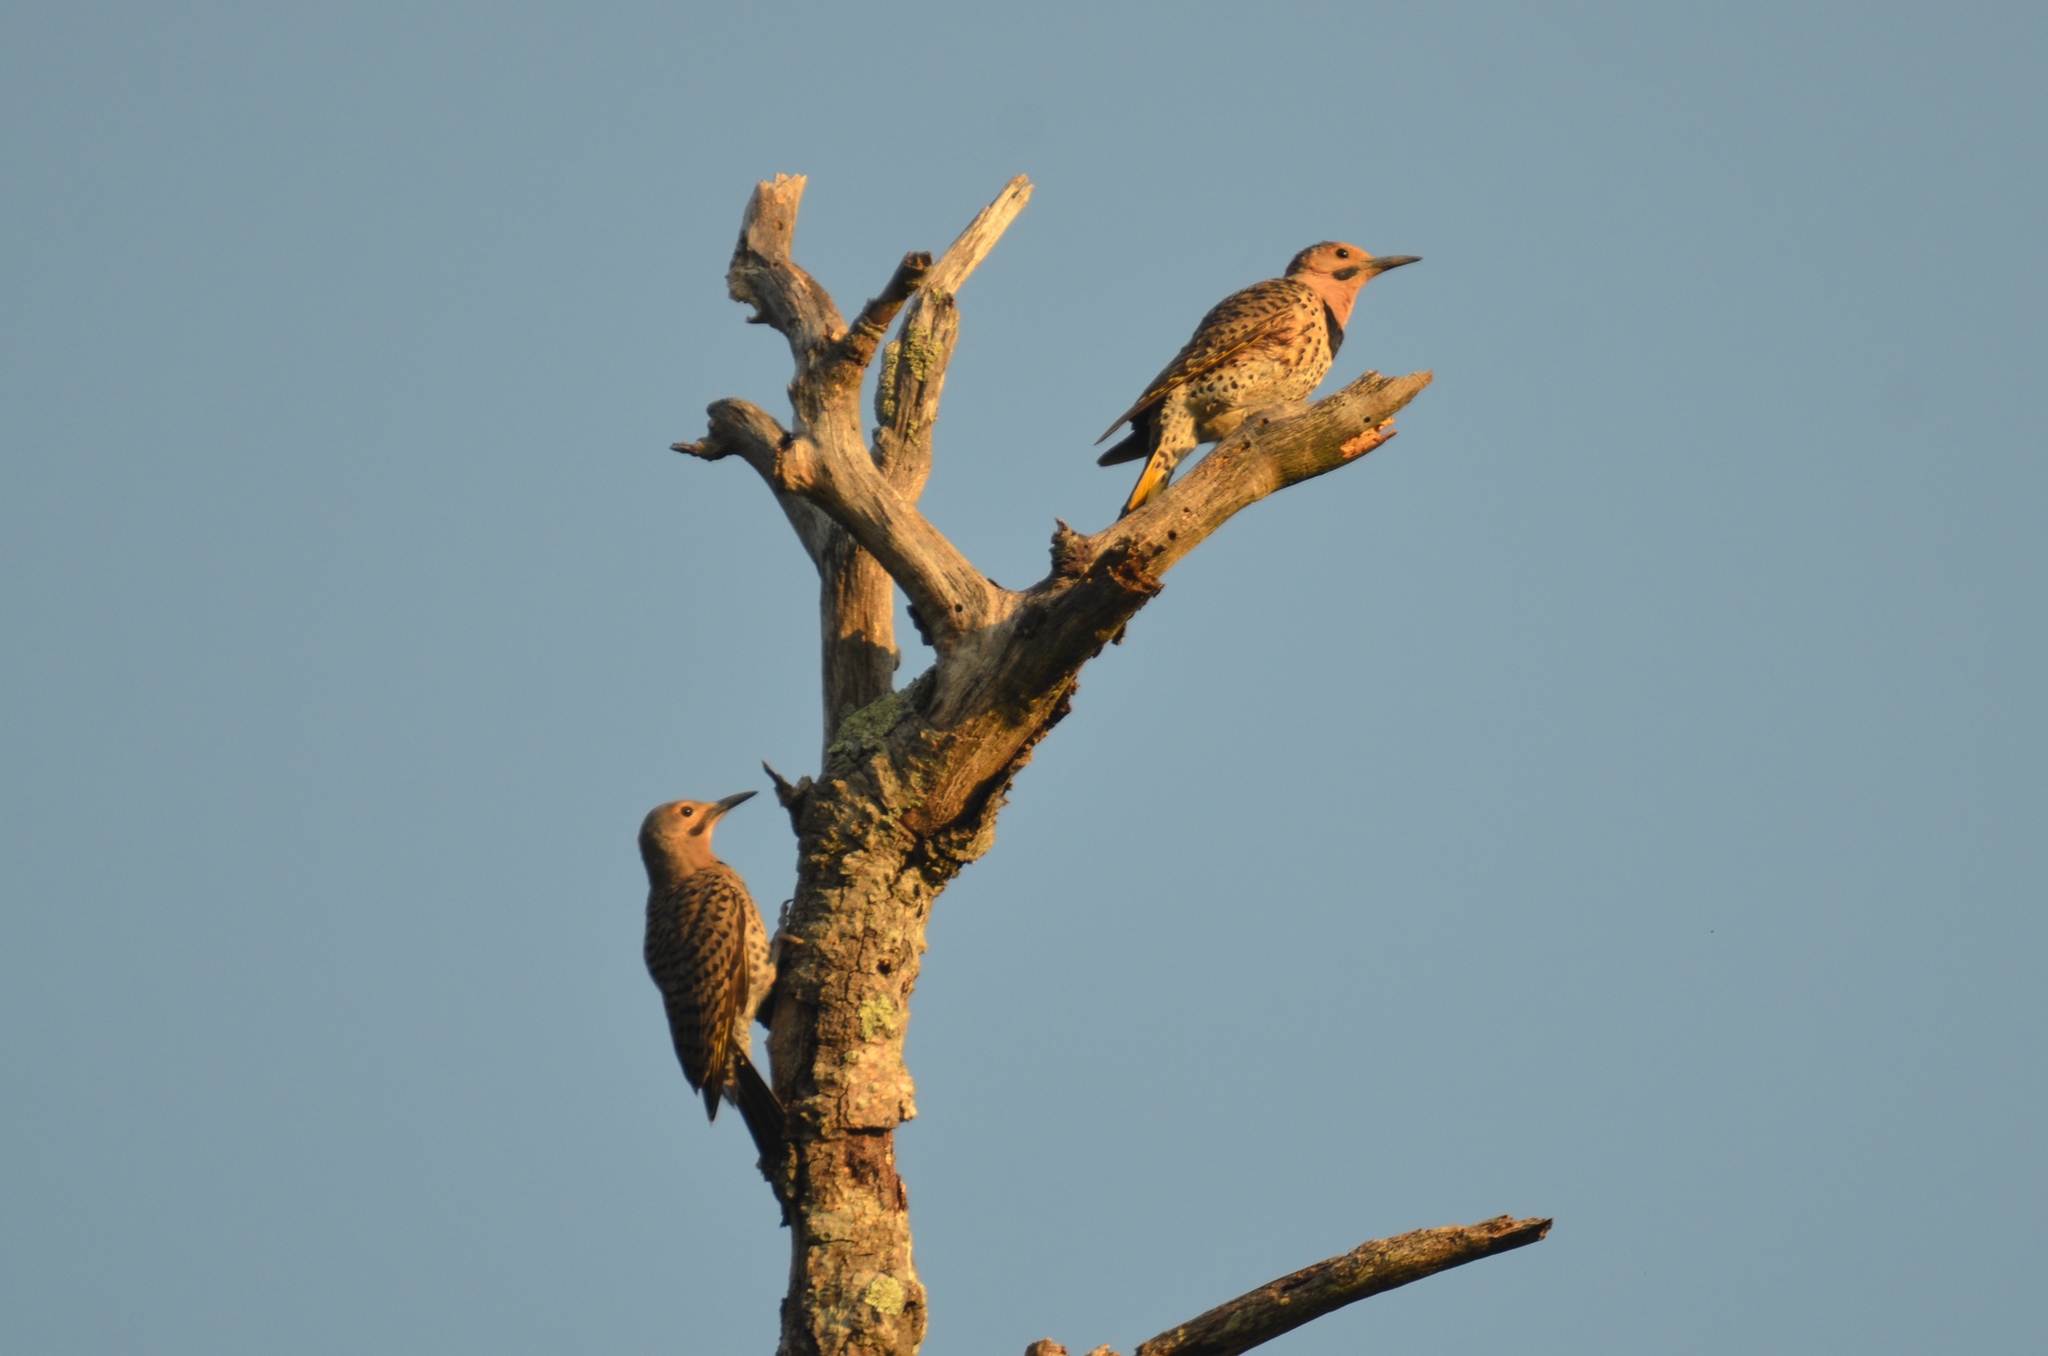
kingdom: Animalia
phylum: Chordata
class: Aves
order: Piciformes
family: Picidae
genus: Colaptes
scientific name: Colaptes auratus
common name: Northern flicker
